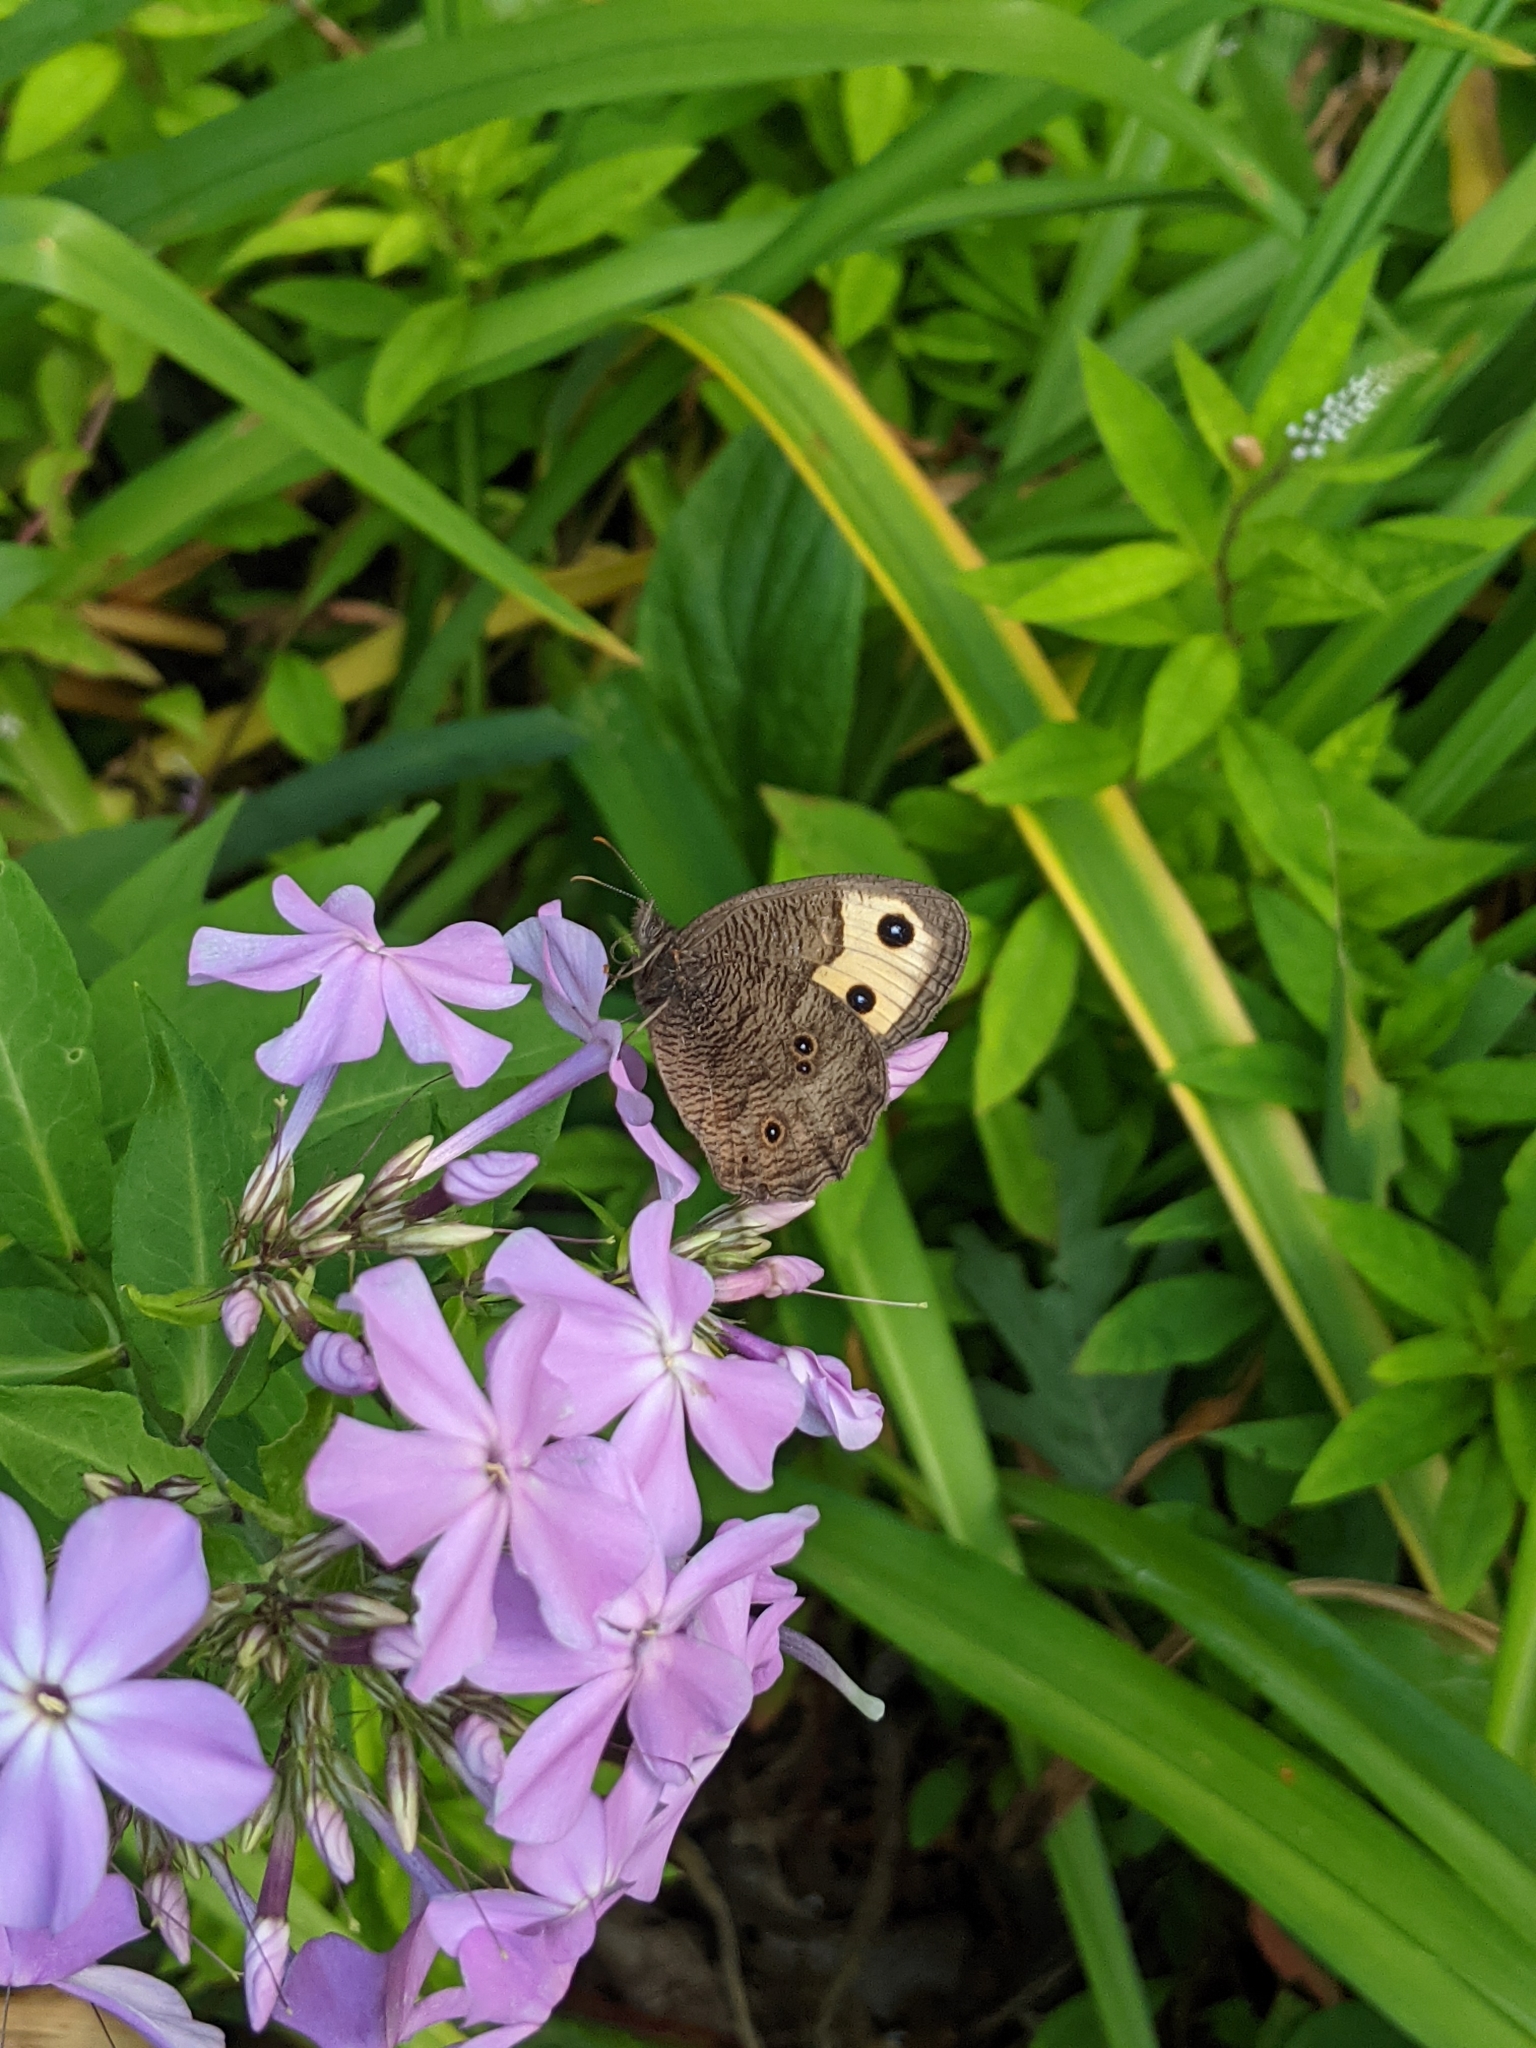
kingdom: Animalia
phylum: Arthropoda
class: Insecta
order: Lepidoptera
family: Nymphalidae
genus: Cercyonis
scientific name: Cercyonis pegala
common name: Common wood-nymph
